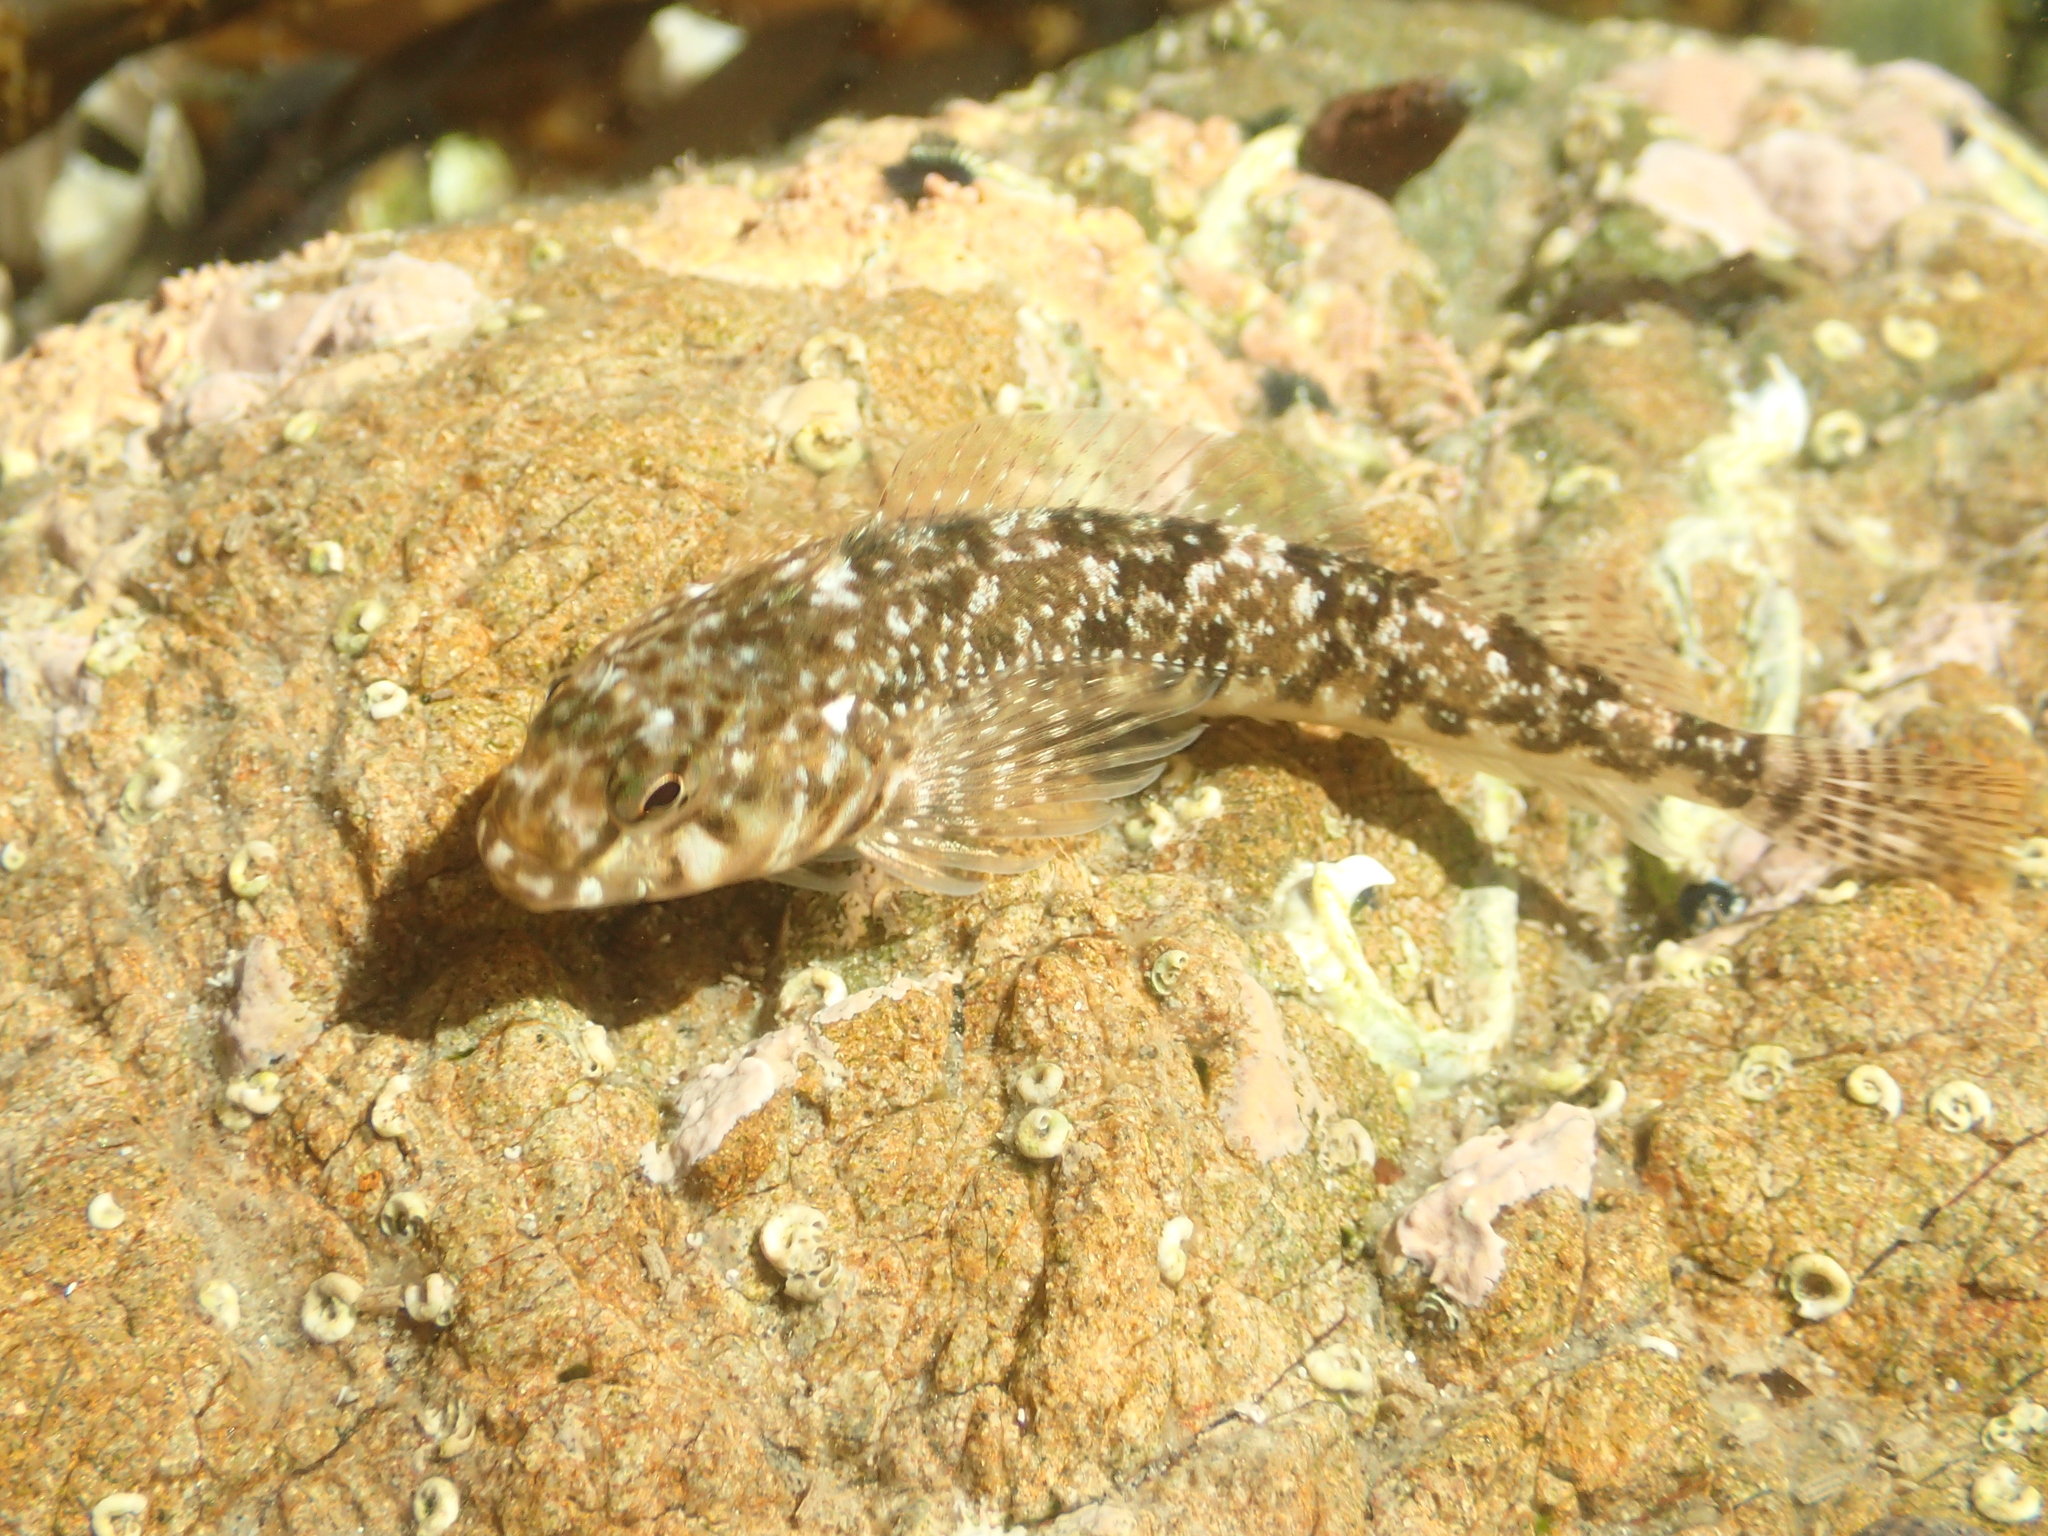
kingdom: Animalia
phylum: Chordata
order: Perciformes
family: Tripterygiidae
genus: Bellapiscis
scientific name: Bellapiscis medius
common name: Twister
